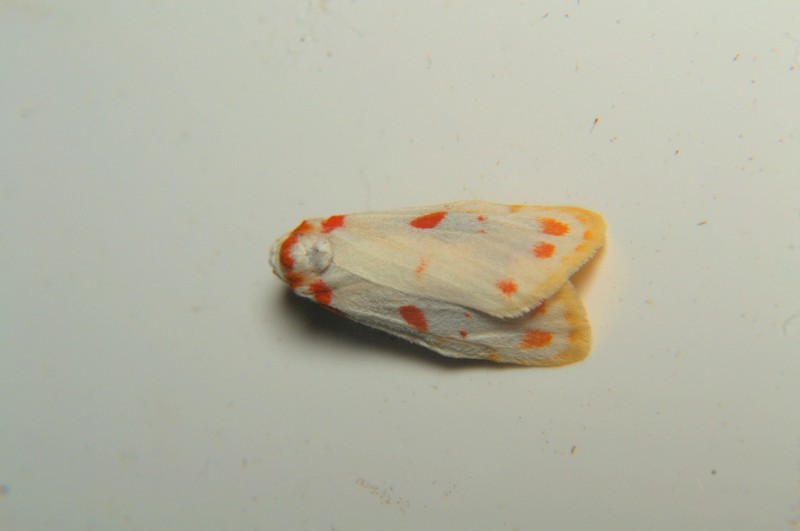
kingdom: Animalia
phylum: Arthropoda
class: Insecta
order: Lepidoptera
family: Erebidae
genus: Nephelomilta
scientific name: Nephelomilta pseudoeffracta
